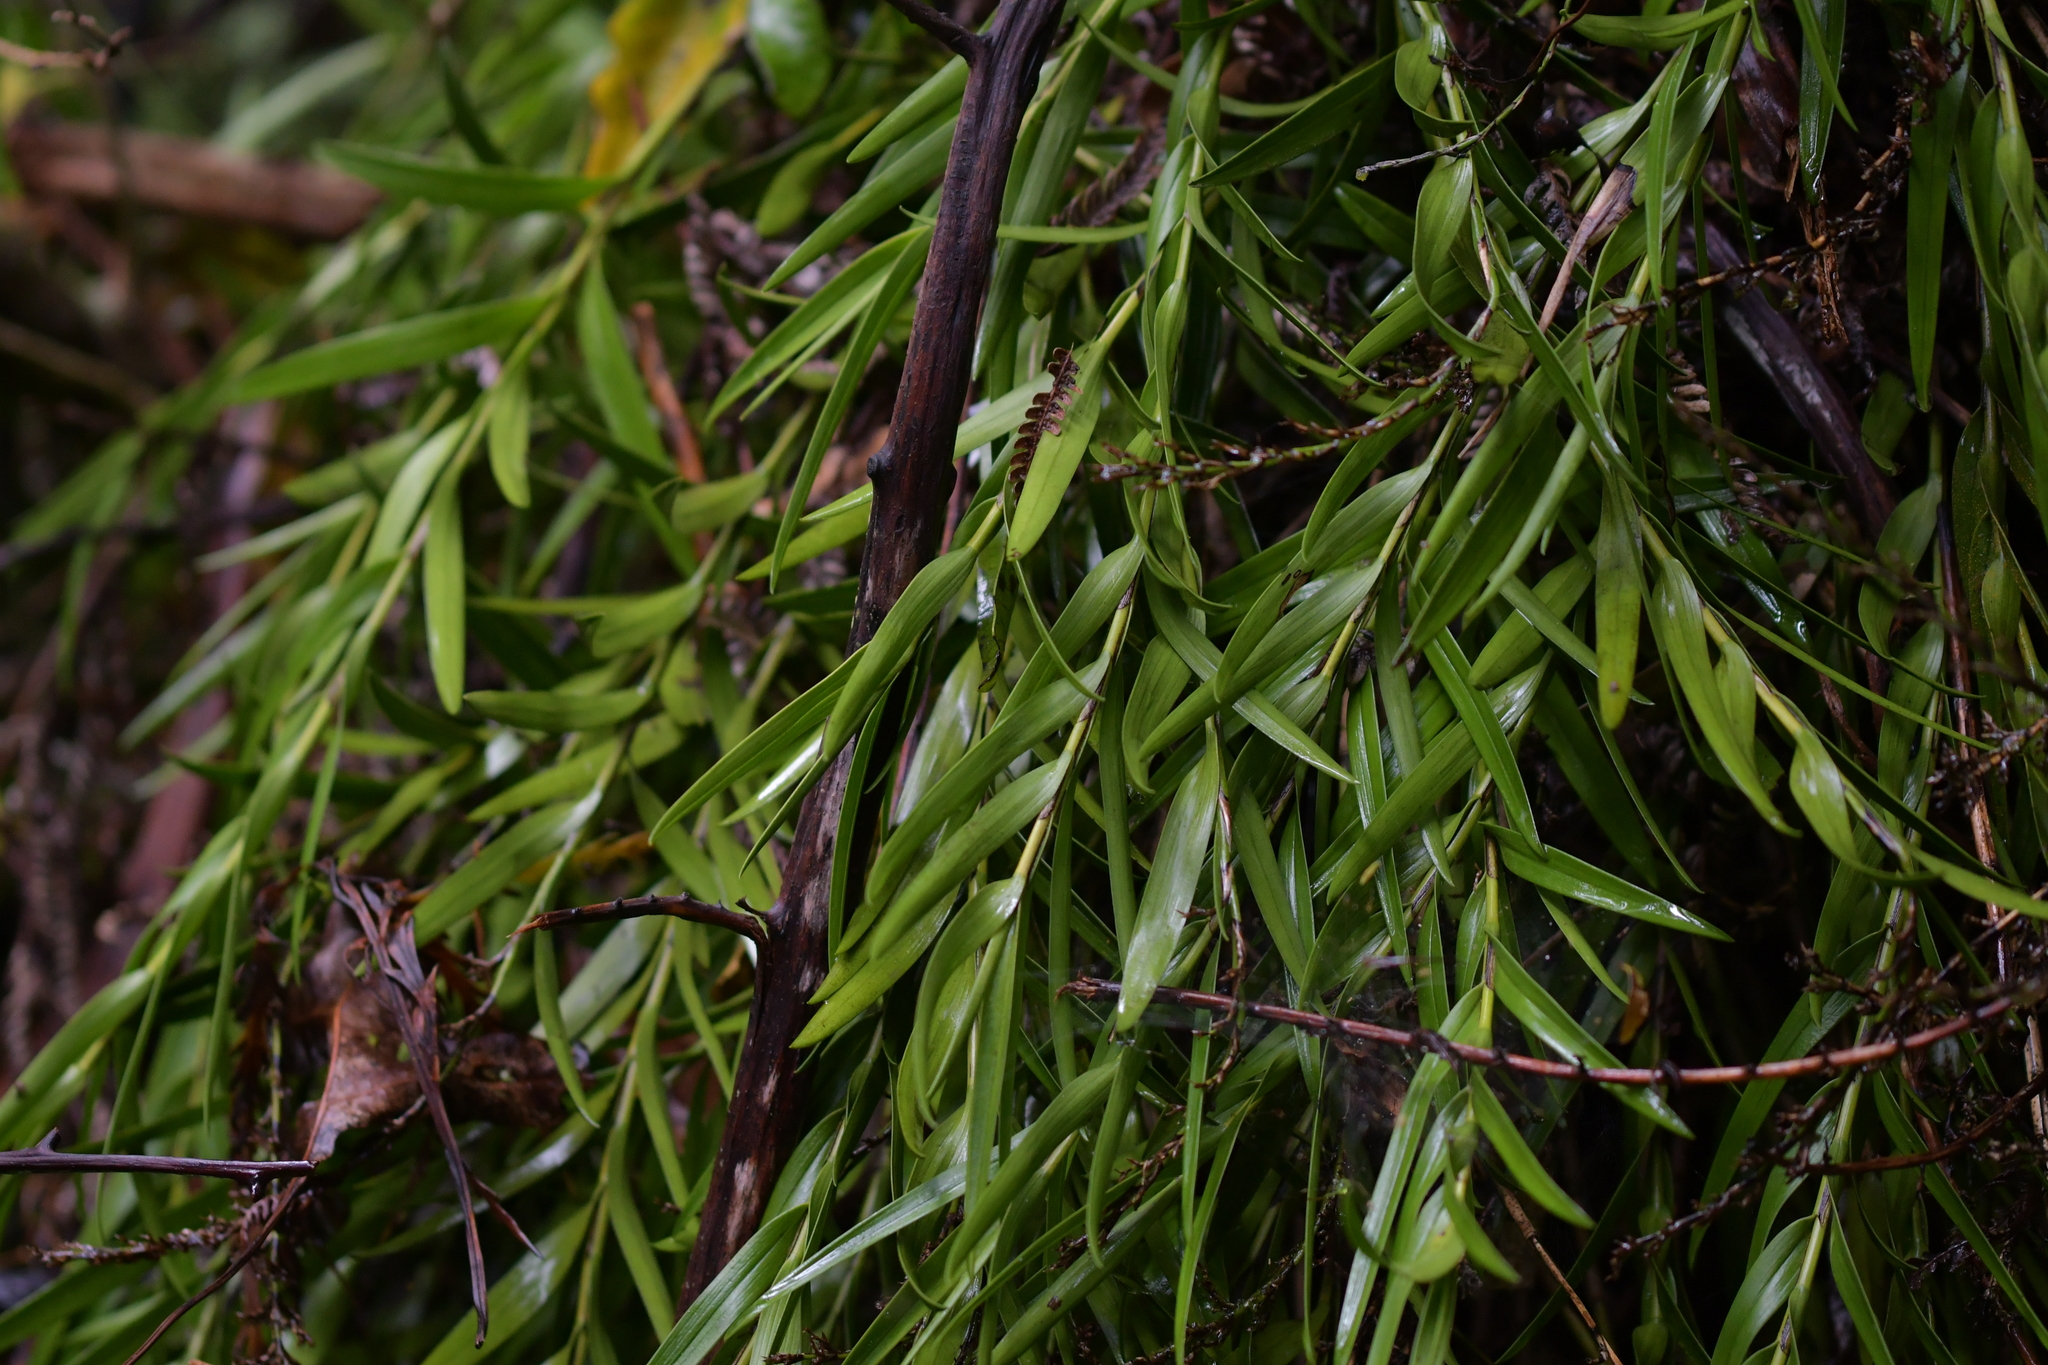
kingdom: Plantae
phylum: Tracheophyta
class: Liliopsida
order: Asparagales
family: Orchidaceae
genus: Earina
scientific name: Earina autumnalis
